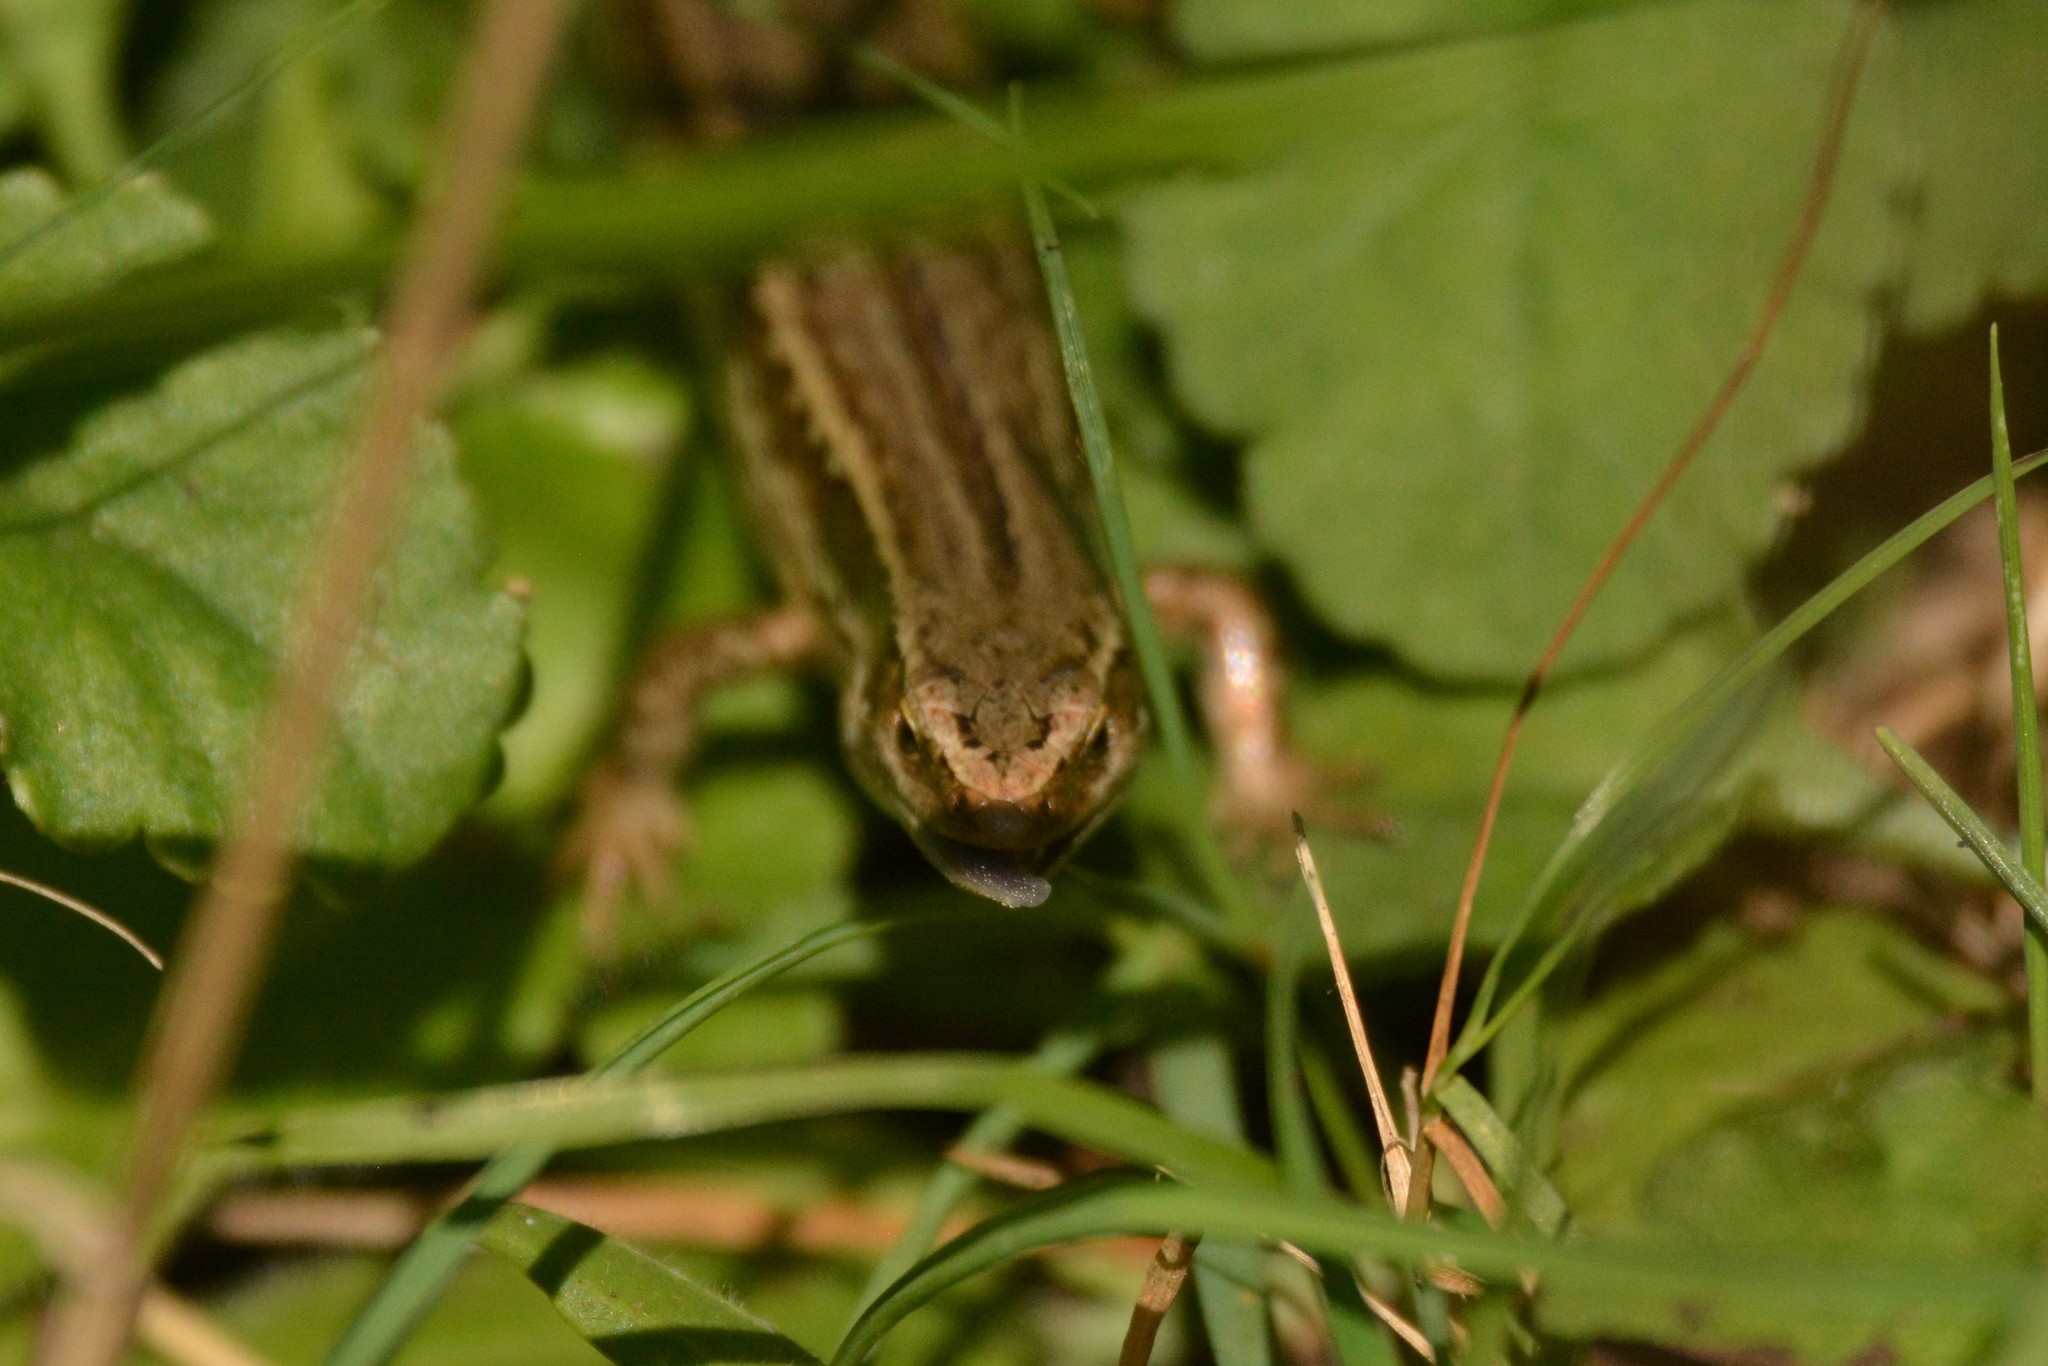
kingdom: Animalia
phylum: Chordata
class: Squamata
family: Scincidae
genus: Oligosoma
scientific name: Oligosoma polychroma
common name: Common new zealand skink
